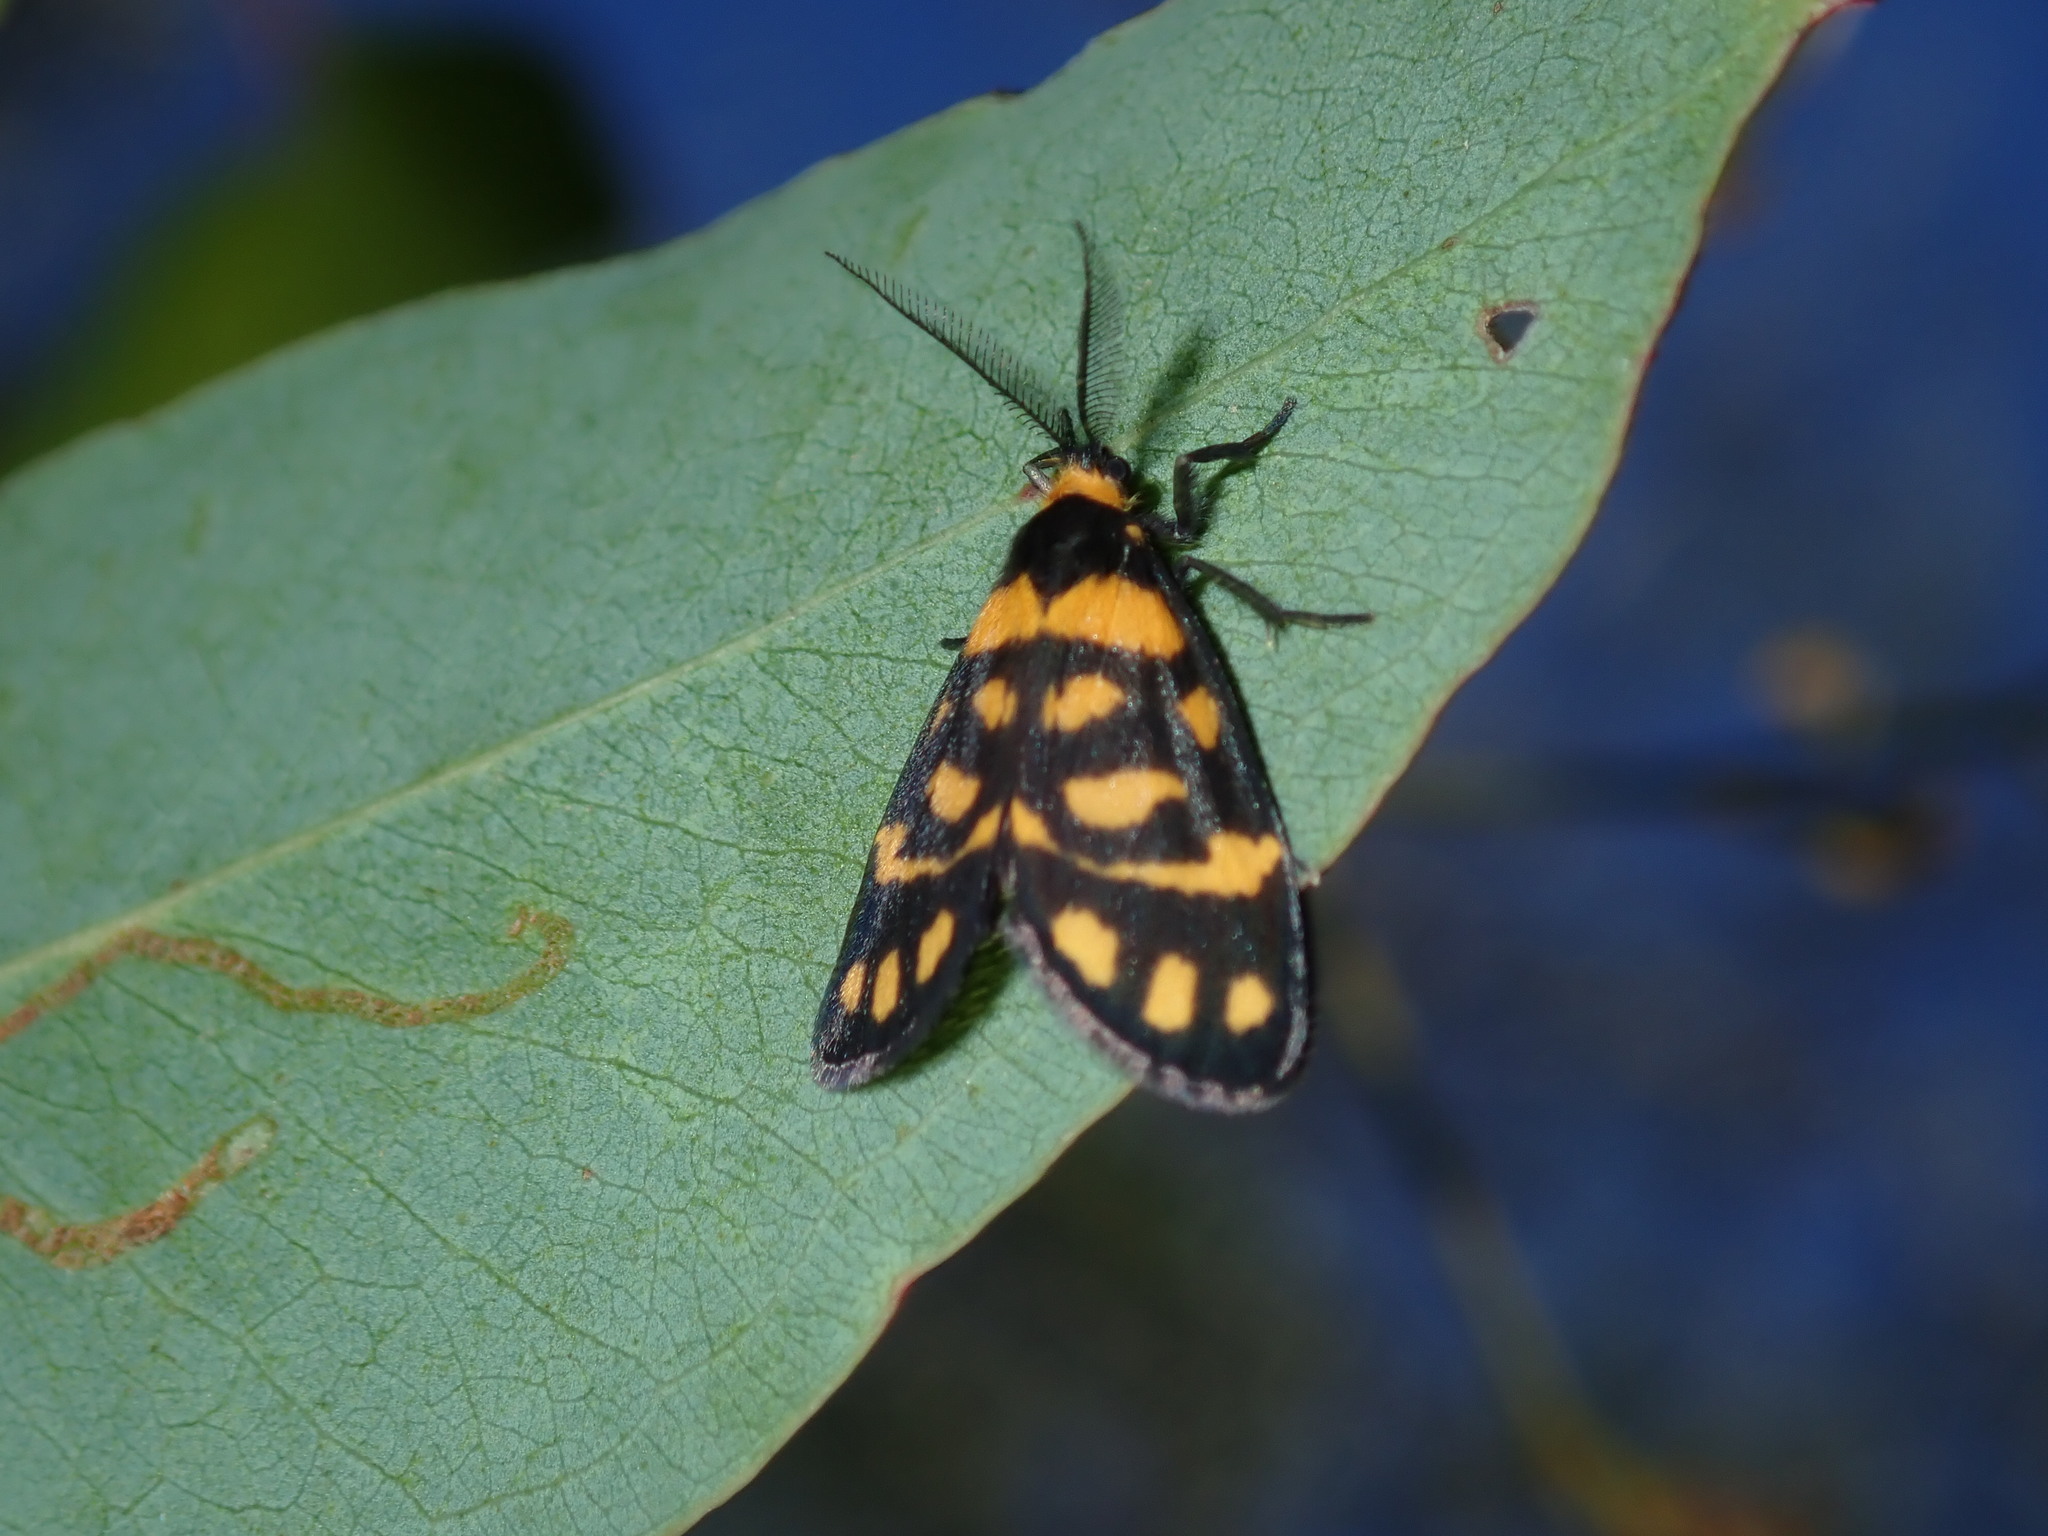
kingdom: Animalia
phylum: Arthropoda
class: Insecta
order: Lepidoptera
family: Erebidae
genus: Asura
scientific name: Asura lydia
